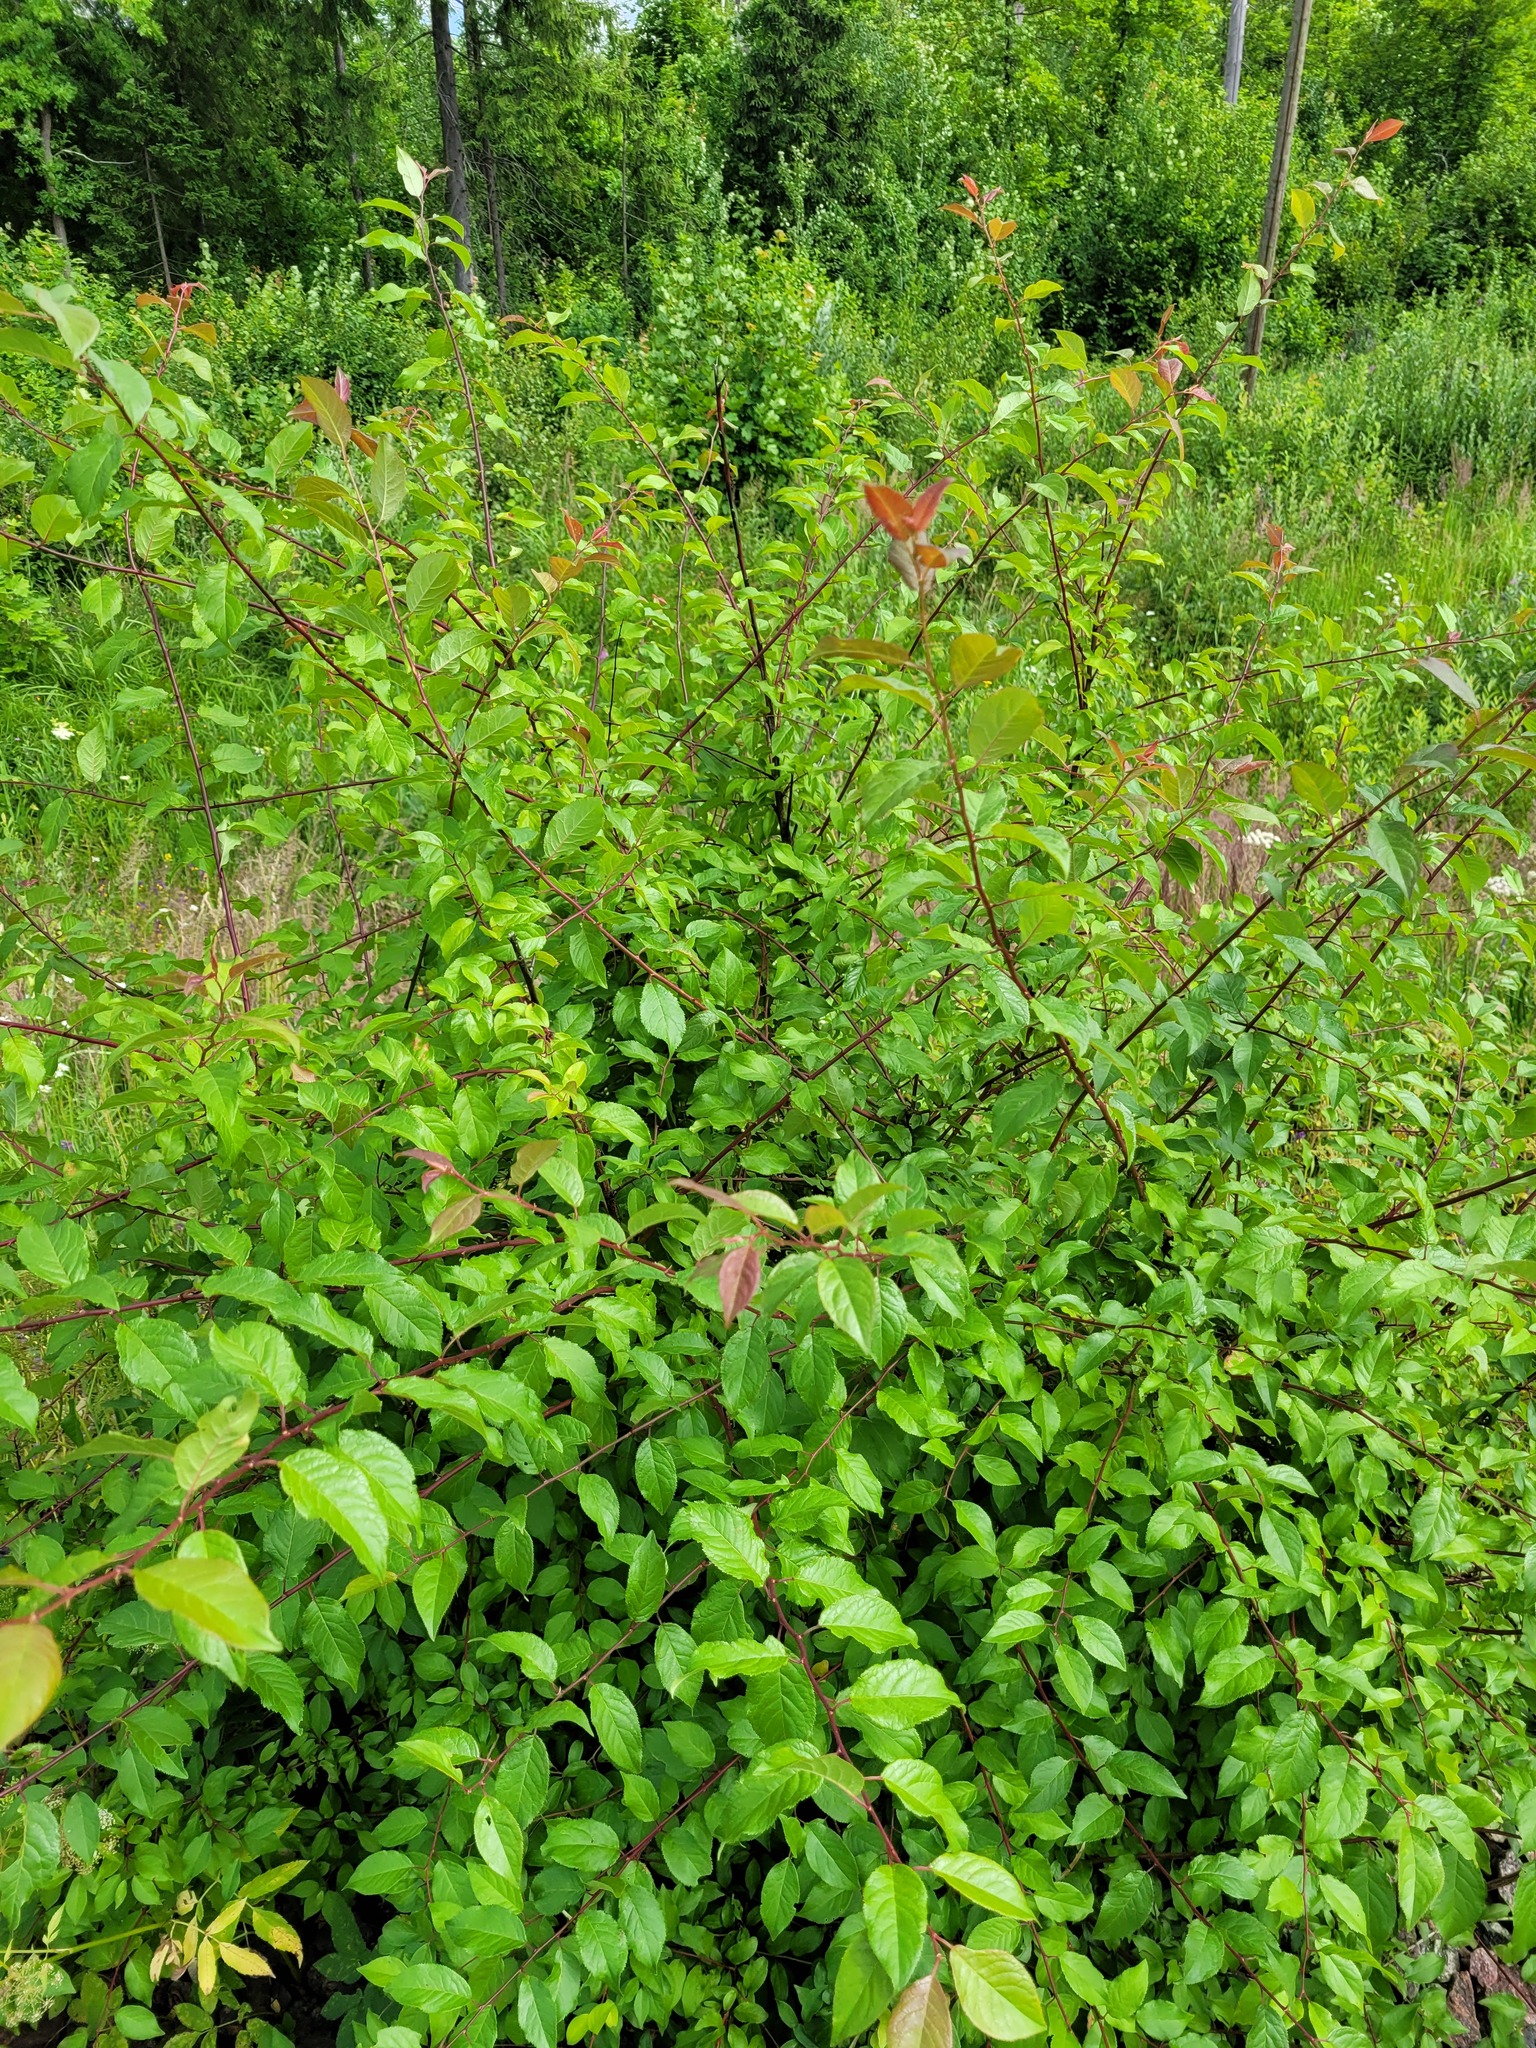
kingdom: Plantae
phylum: Tracheophyta
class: Magnoliopsida
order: Rosales
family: Rosaceae
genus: Prunus
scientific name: Prunus cerasifera
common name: Cherry plum
